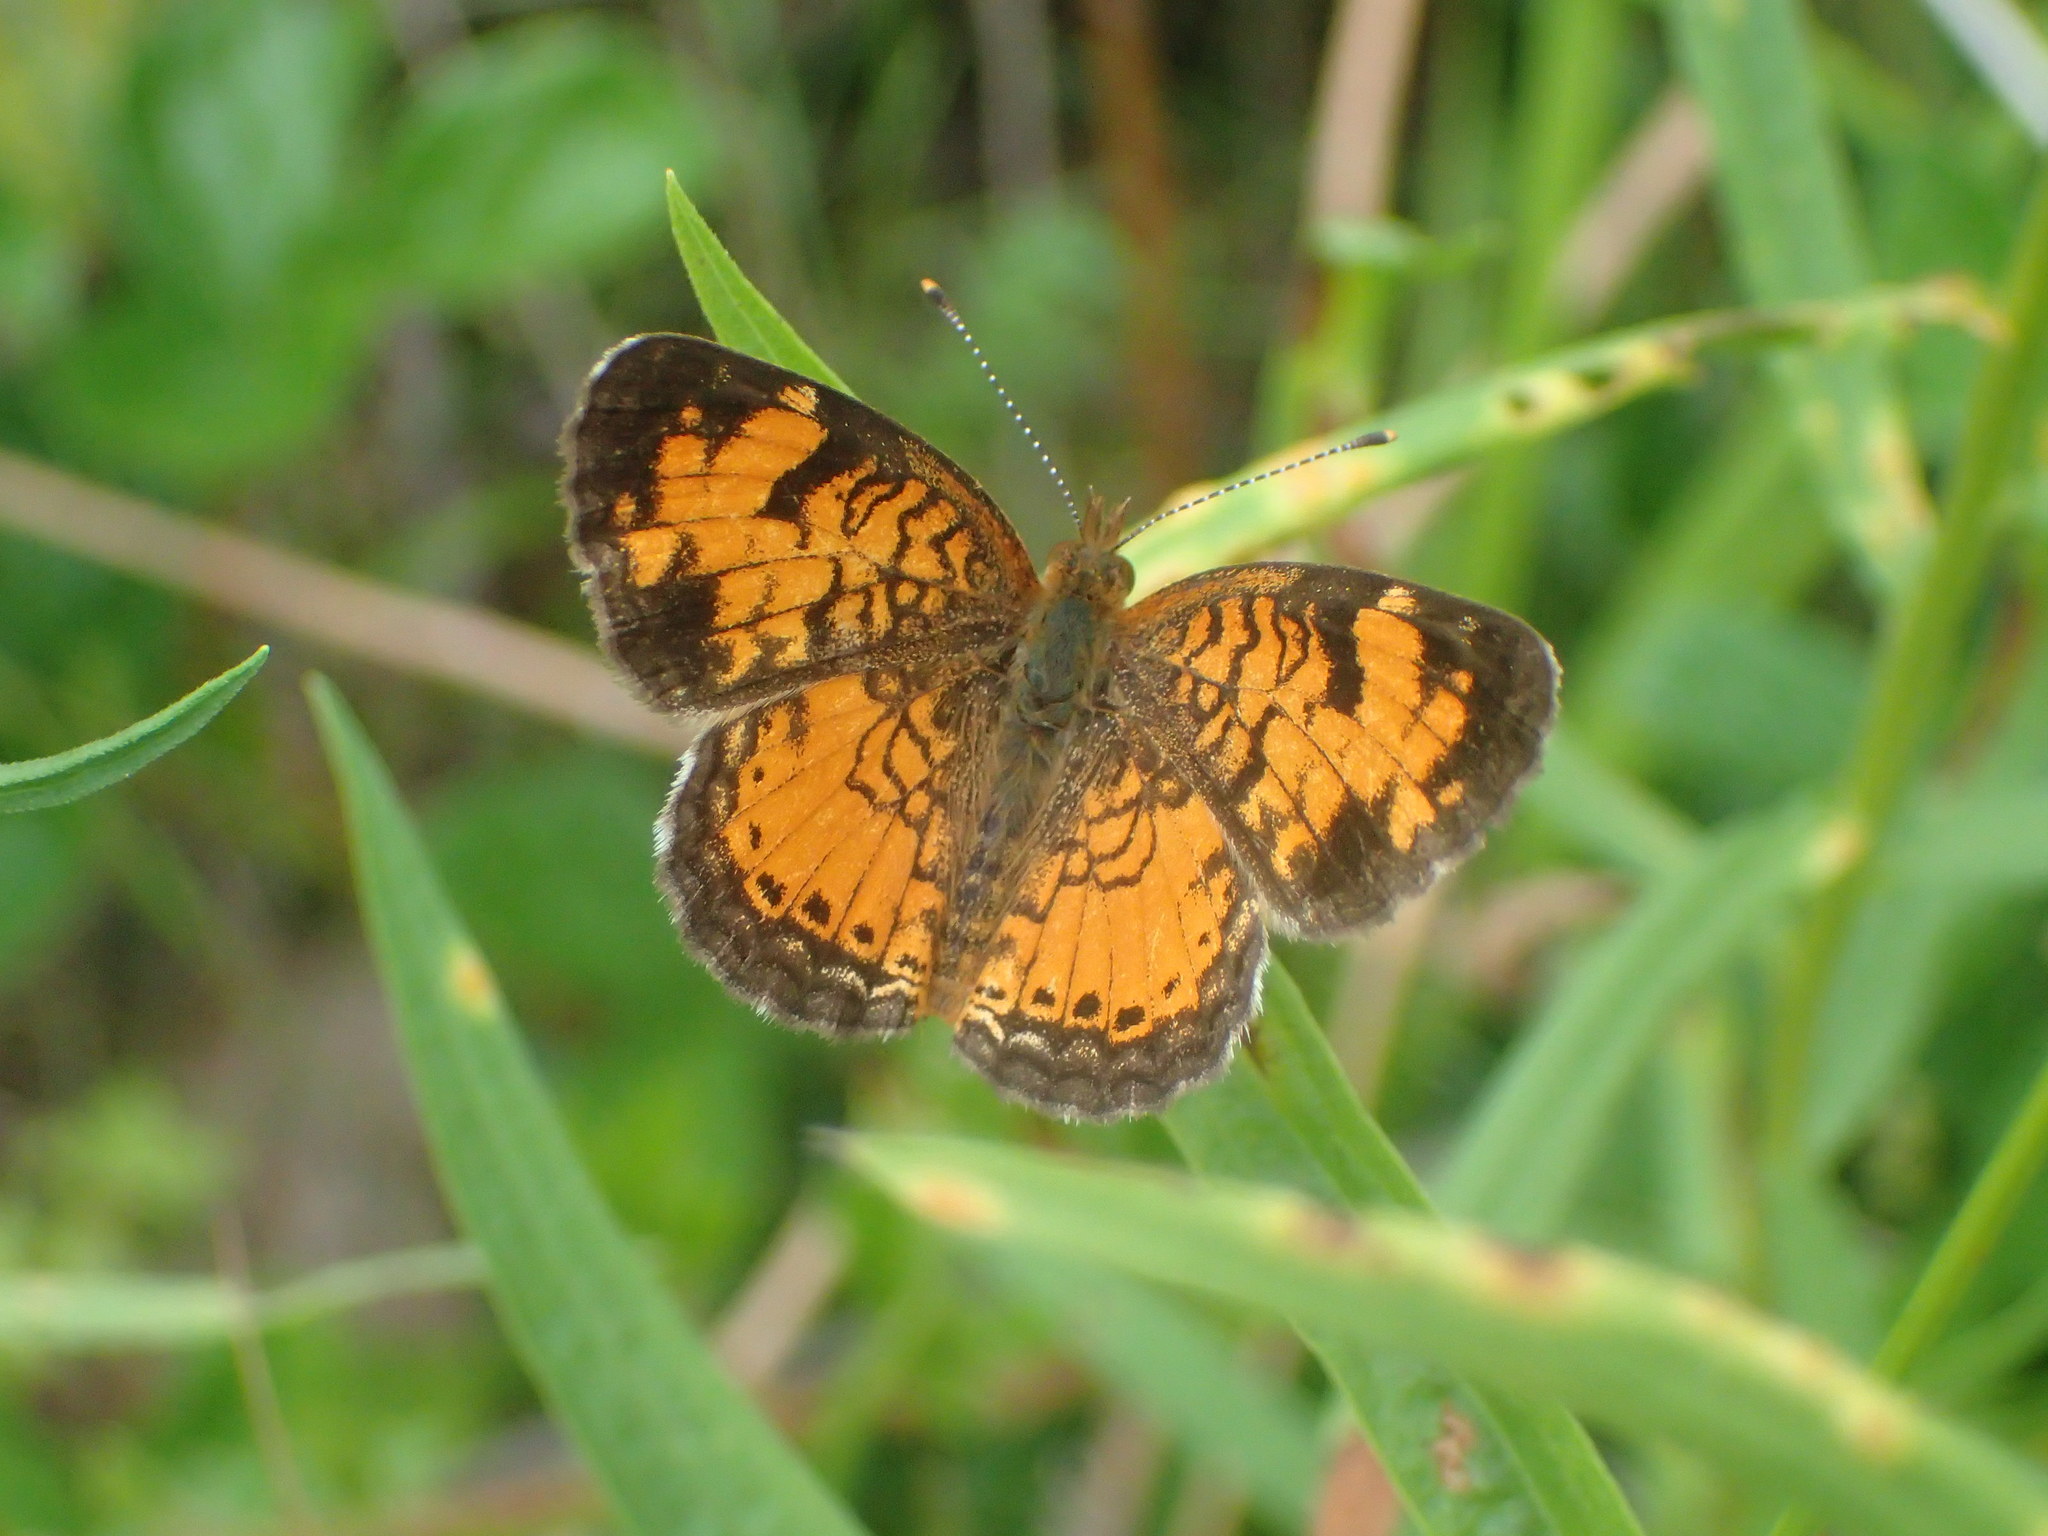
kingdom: Animalia
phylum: Arthropoda
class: Insecta
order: Lepidoptera
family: Nymphalidae
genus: Phyciodes
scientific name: Phyciodes tharos
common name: Pearl crescent
